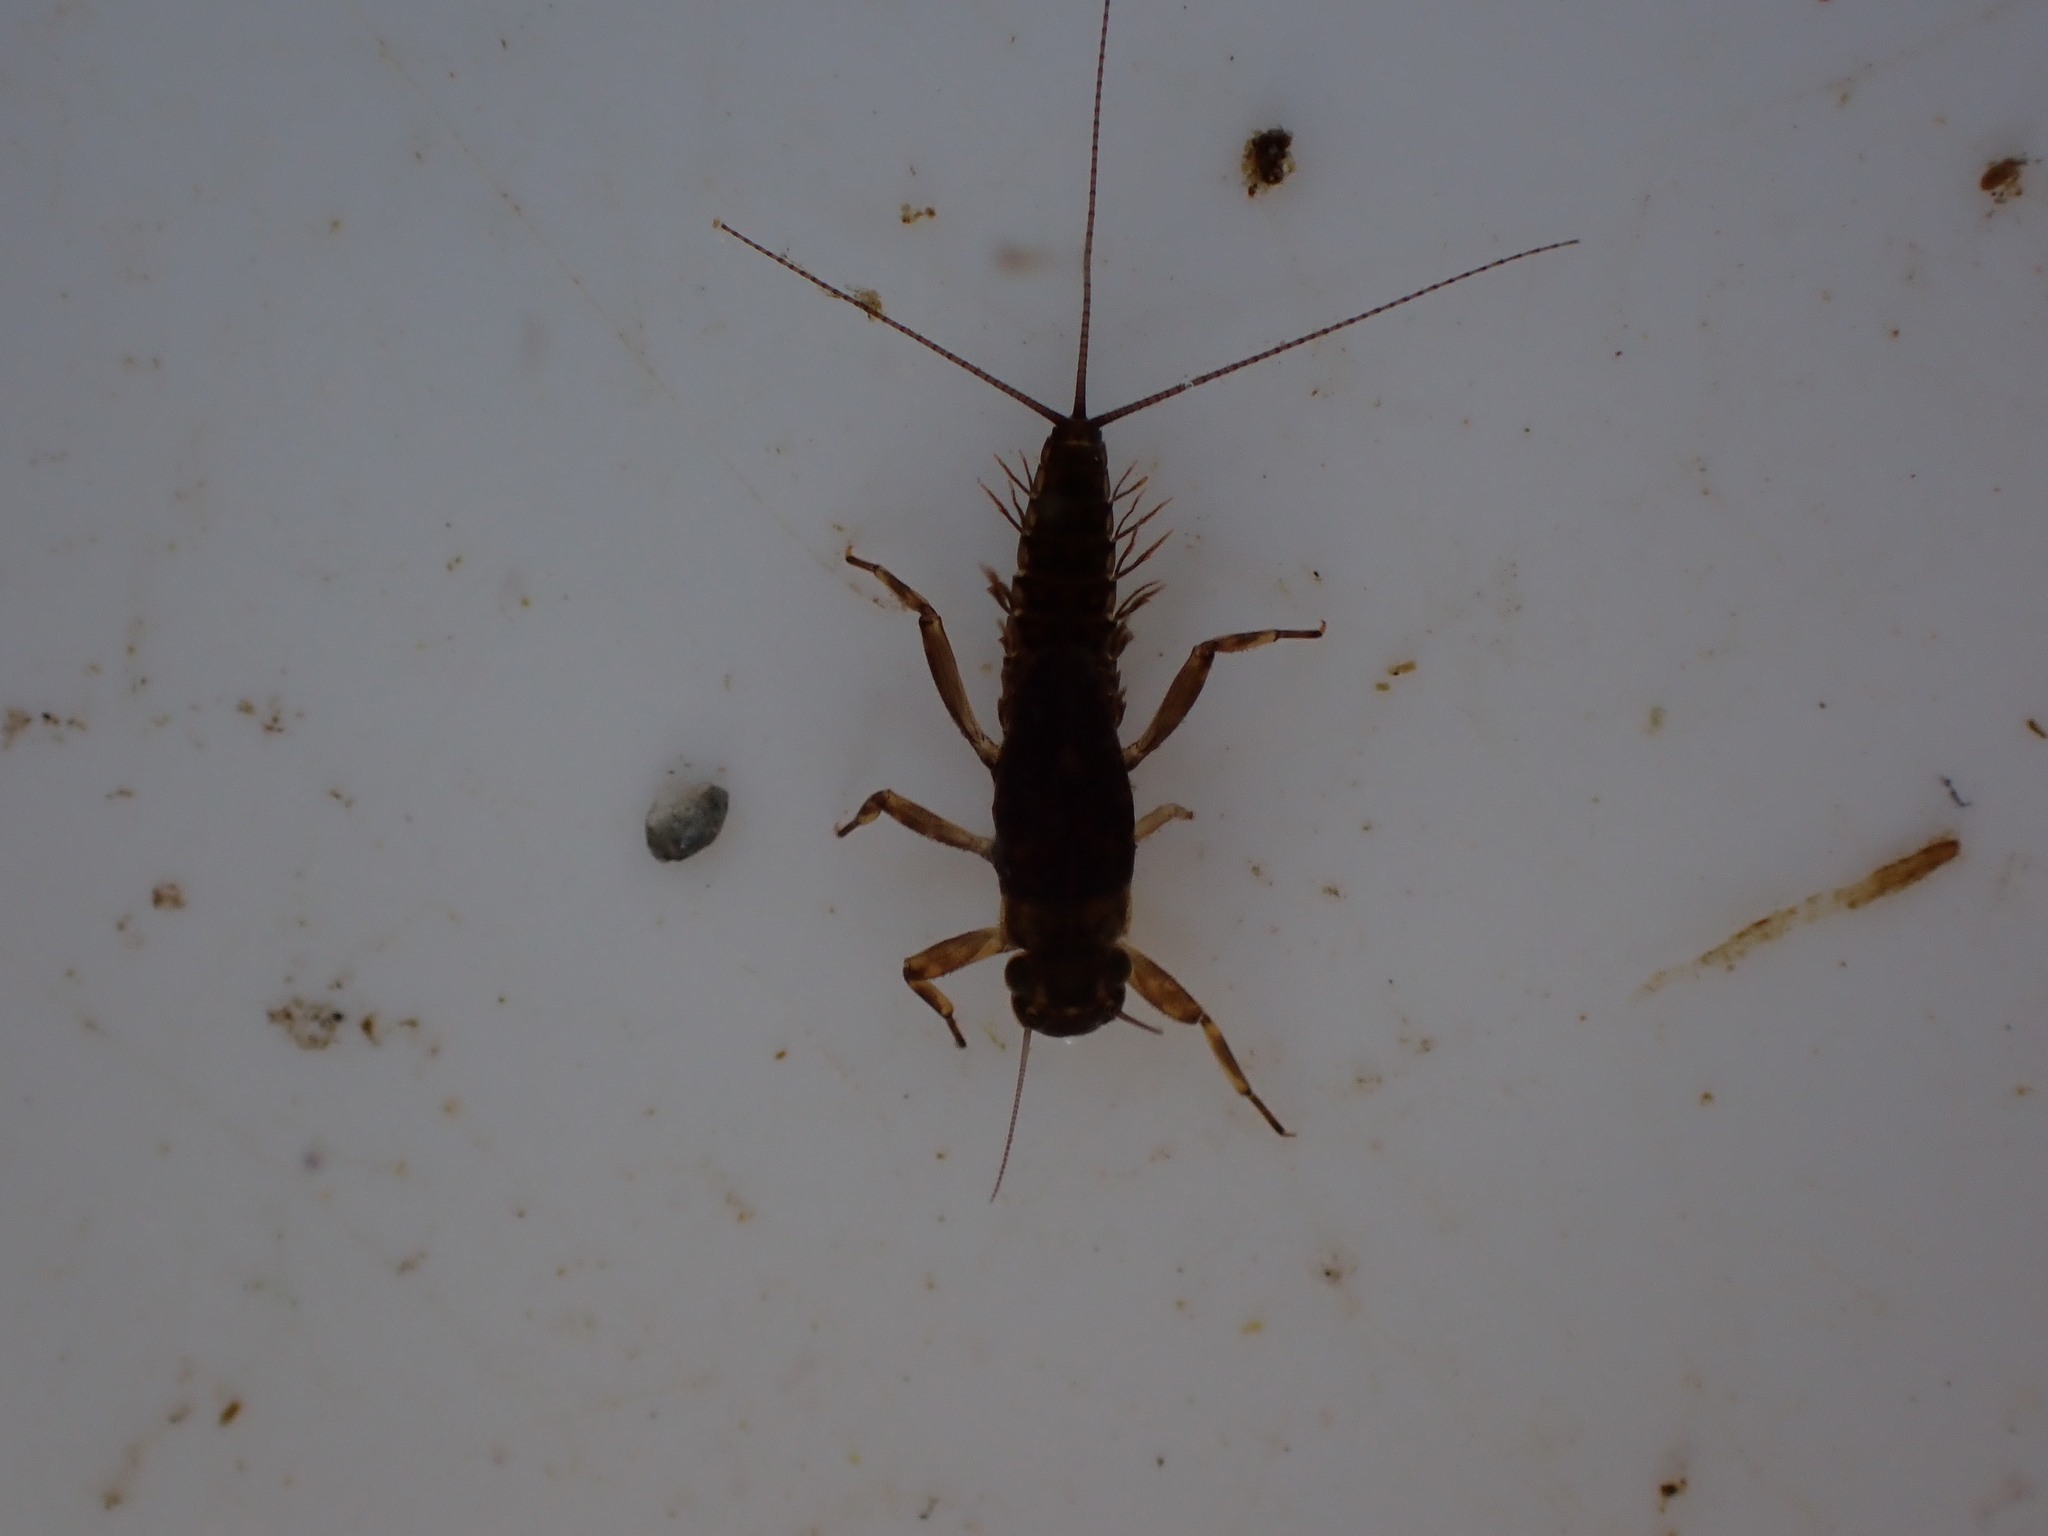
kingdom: Animalia
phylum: Arthropoda
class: Insecta
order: Ephemeroptera
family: Leptophlebiidae
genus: Austroclima
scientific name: Austroclima sepia
